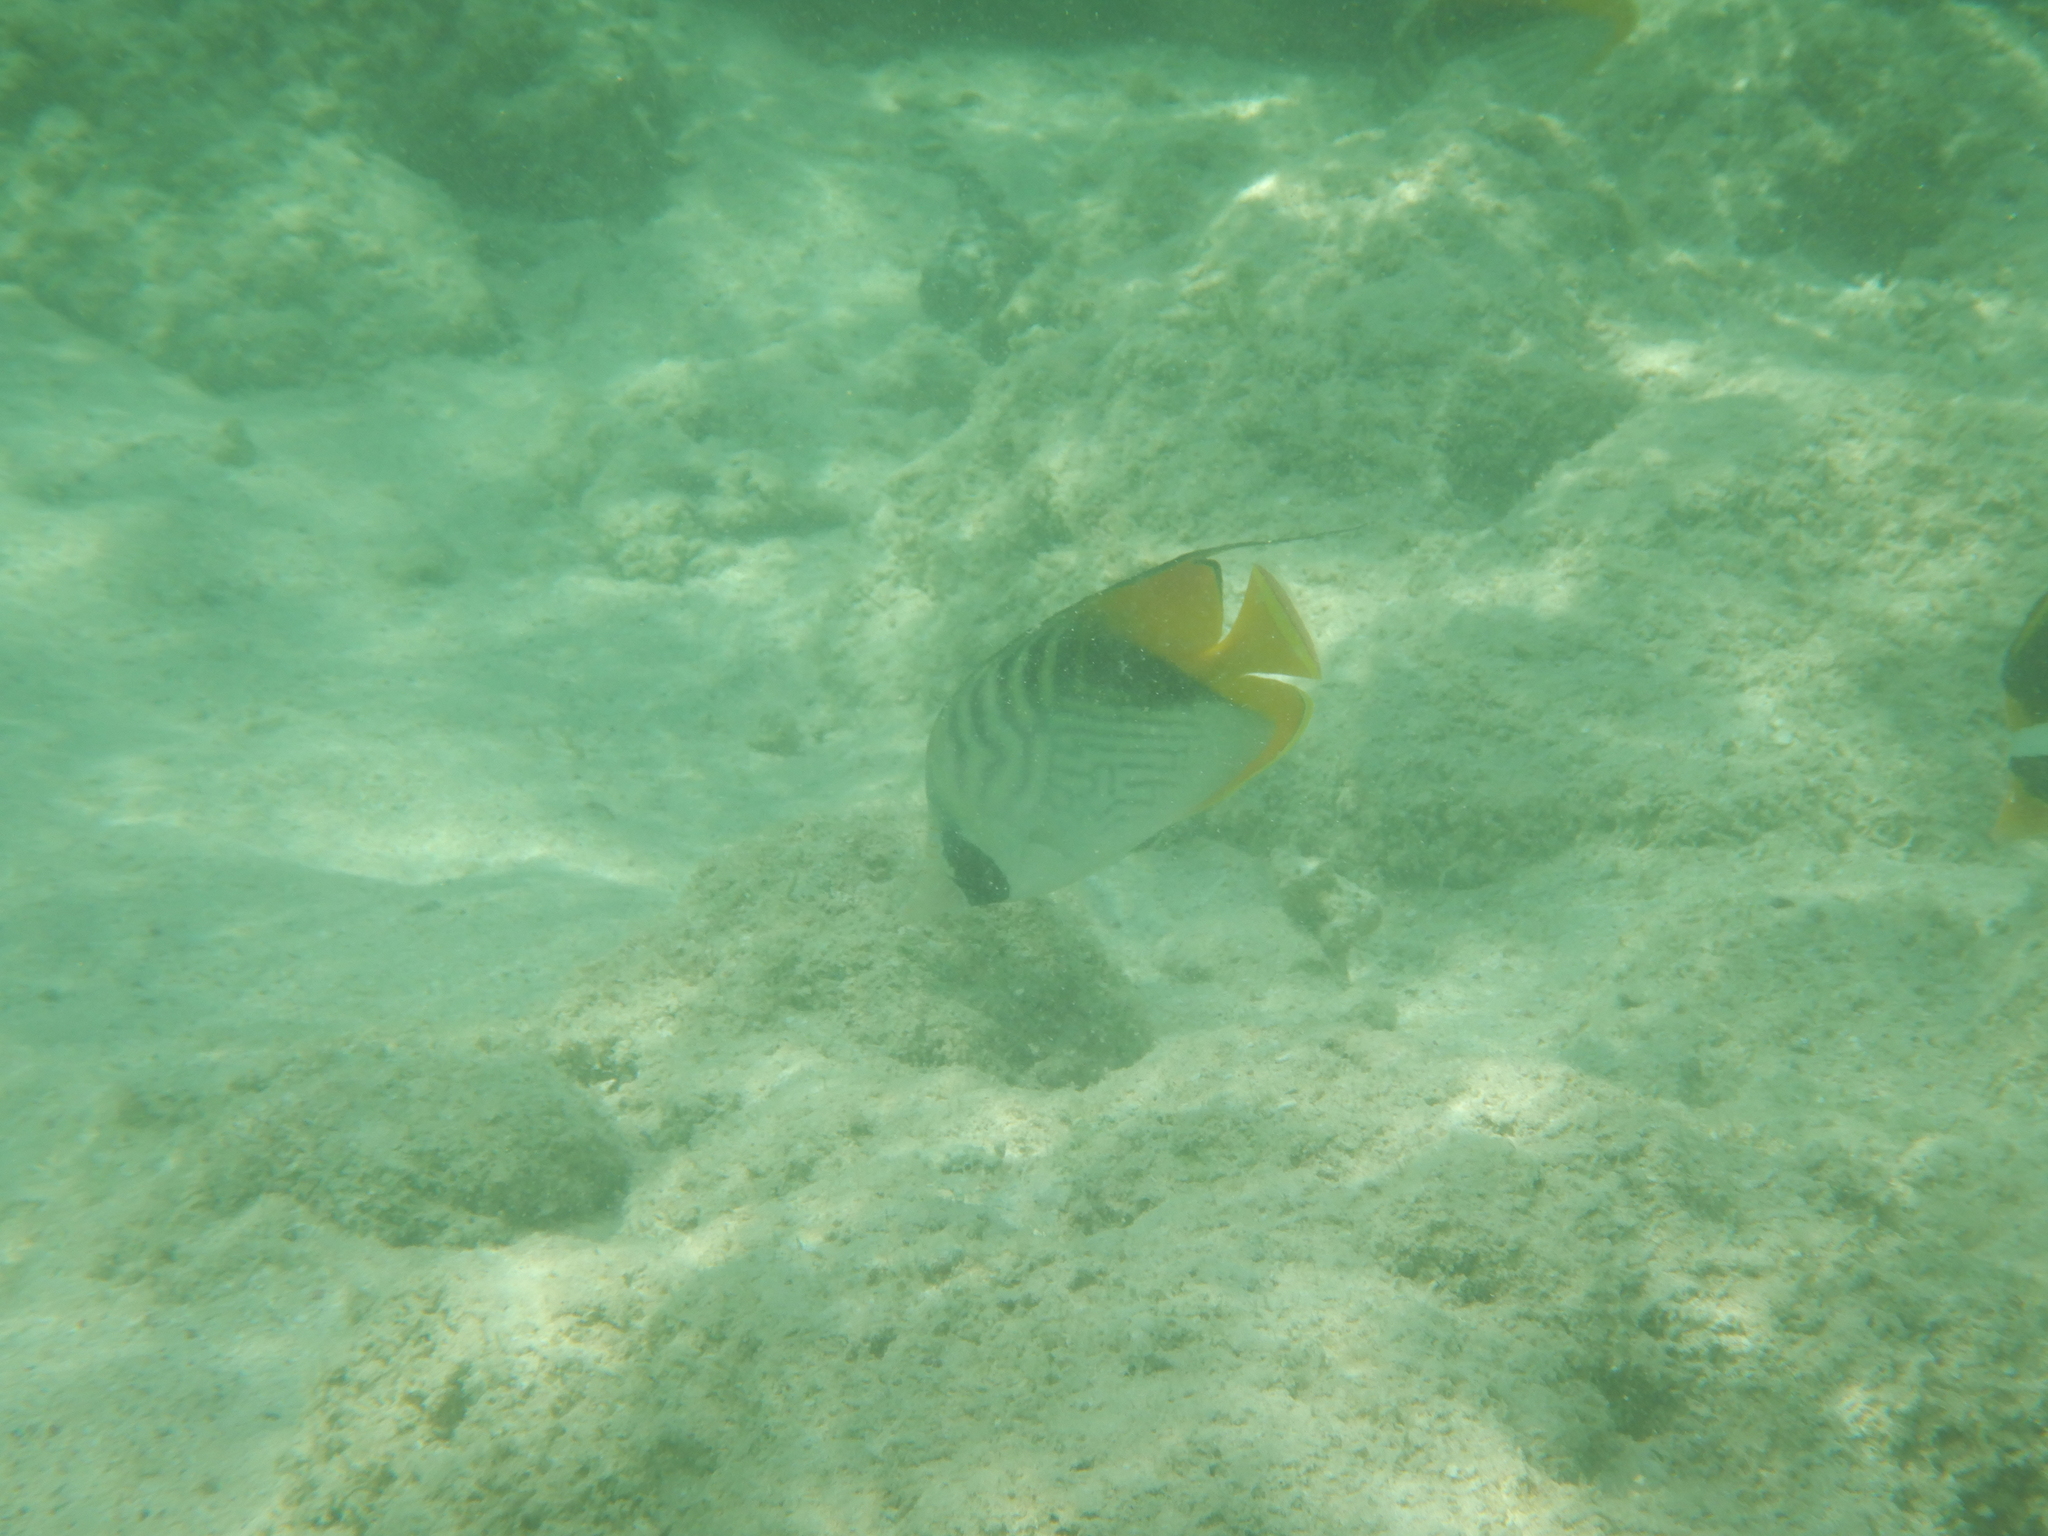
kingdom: Animalia
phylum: Chordata
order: Perciformes
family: Chaetodontidae
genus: Chaetodon
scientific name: Chaetodon auriga
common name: Threadfin butterflyfish
